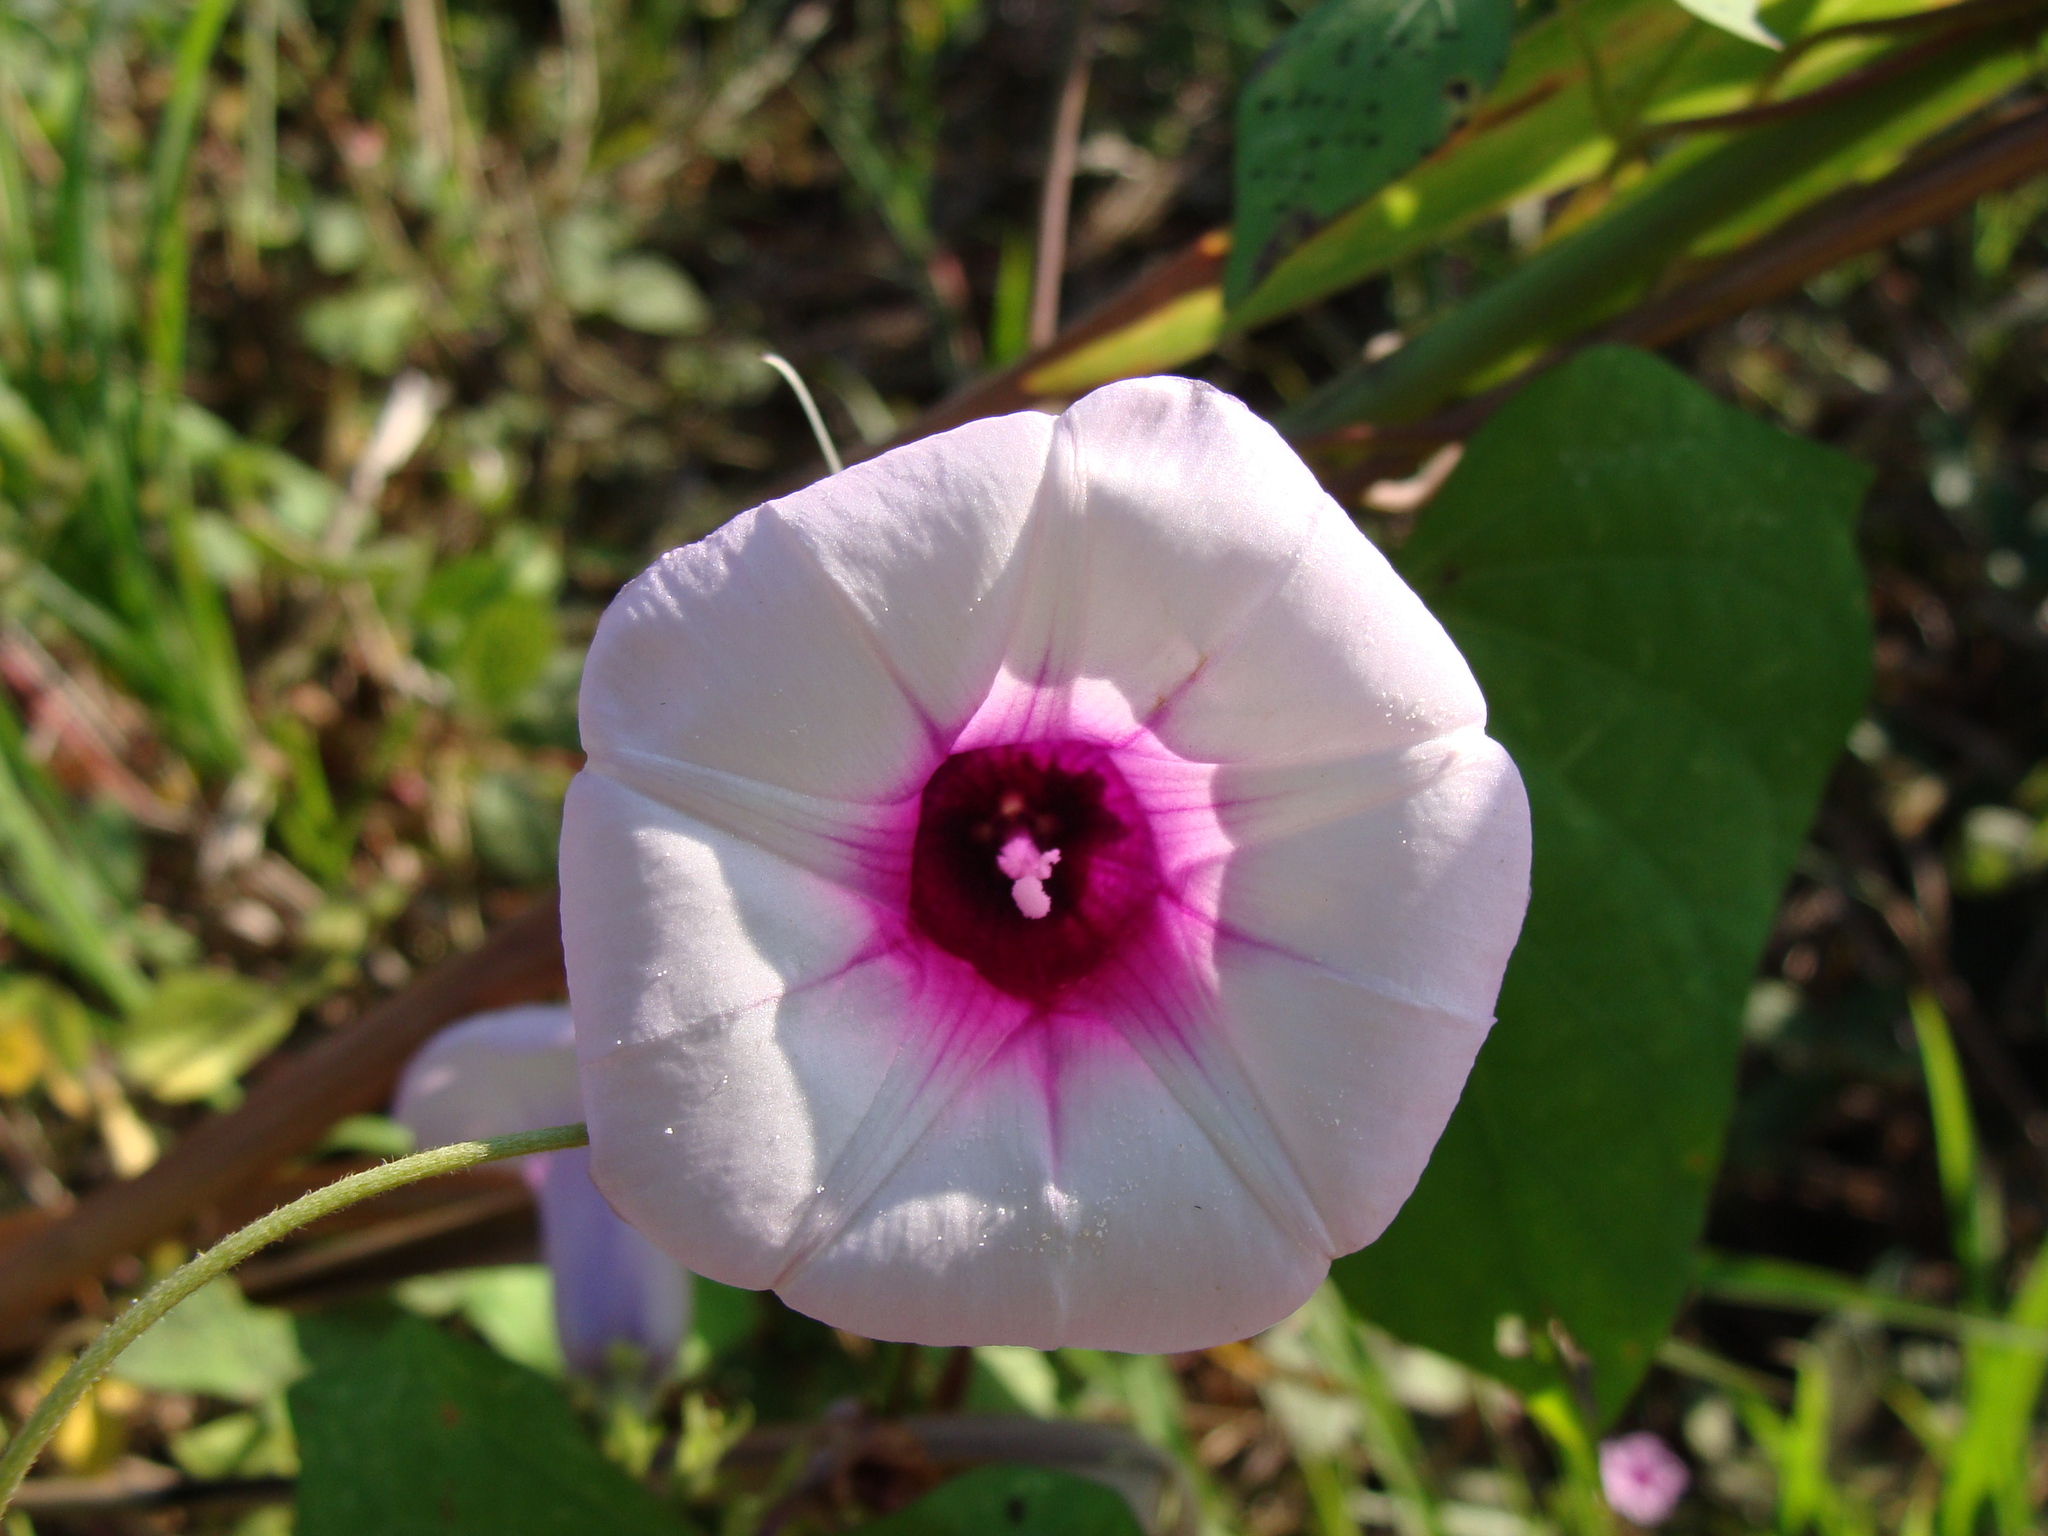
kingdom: Plantae
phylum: Tracheophyta
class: Magnoliopsida
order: Solanales
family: Convolvulaceae
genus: Ipomoea
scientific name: Ipomoea batatas
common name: Sweet-potato
